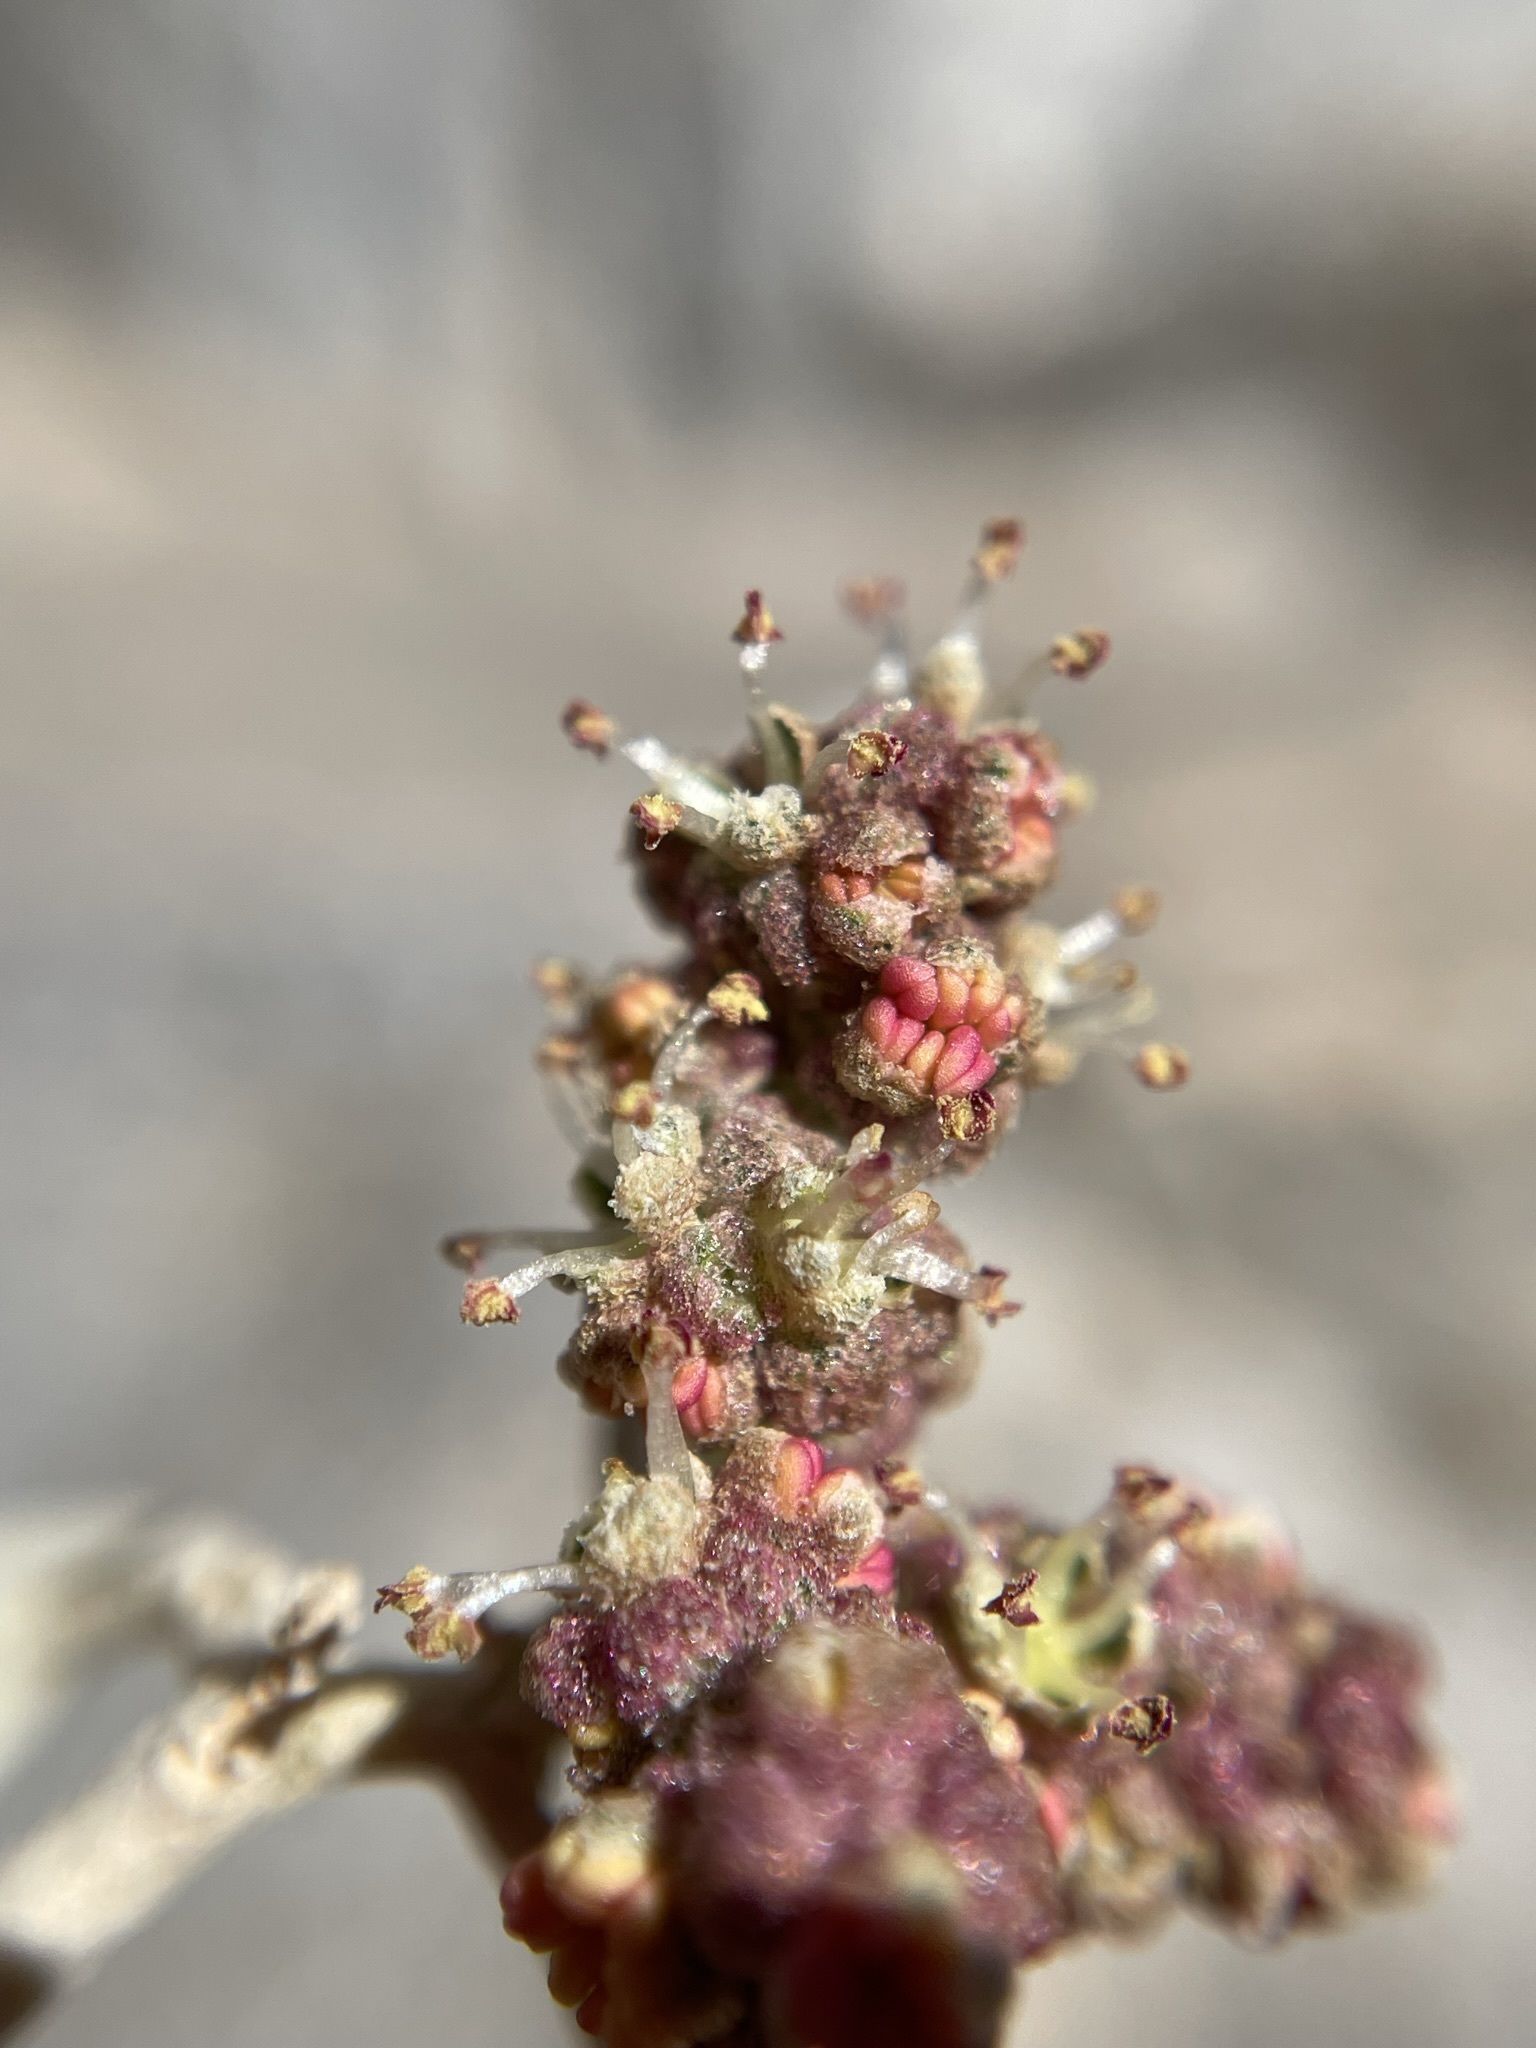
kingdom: Plantae
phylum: Tracheophyta
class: Magnoliopsida
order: Caryophyllales
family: Amaranthaceae
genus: Atriplex
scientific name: Atriplex hymenelytra
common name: Desert-holly
